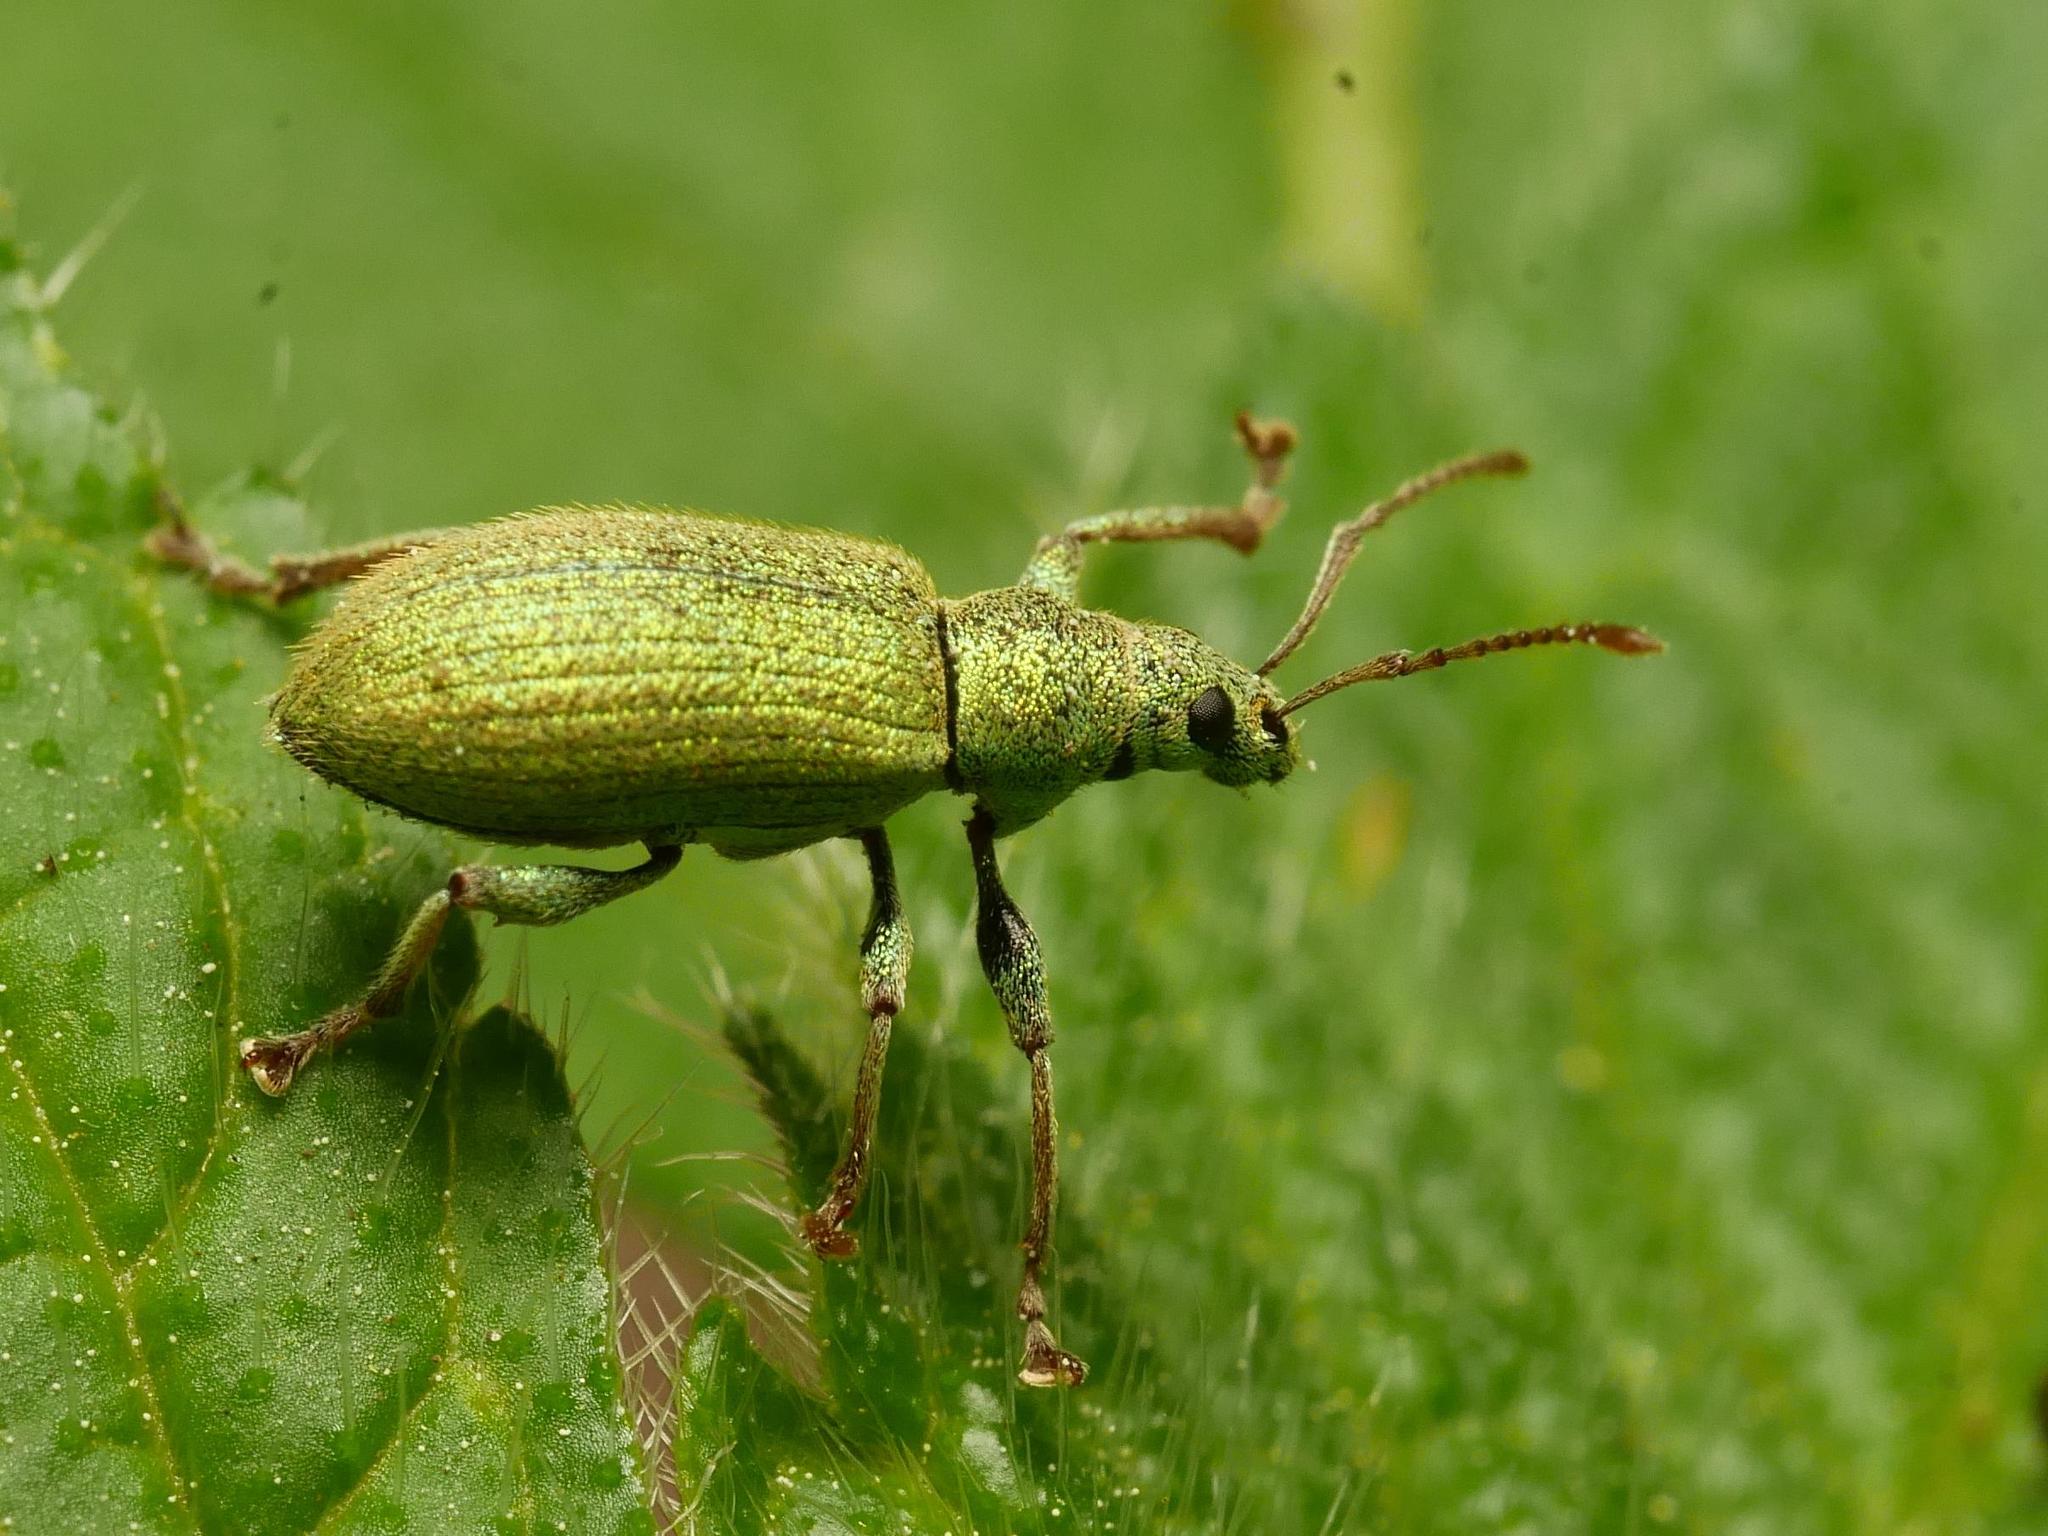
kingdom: Animalia
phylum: Arthropoda
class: Insecta
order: Coleoptera
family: Curculionidae
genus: Phyllobius
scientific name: Phyllobius argentatus
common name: Silver-green leaf weevil
